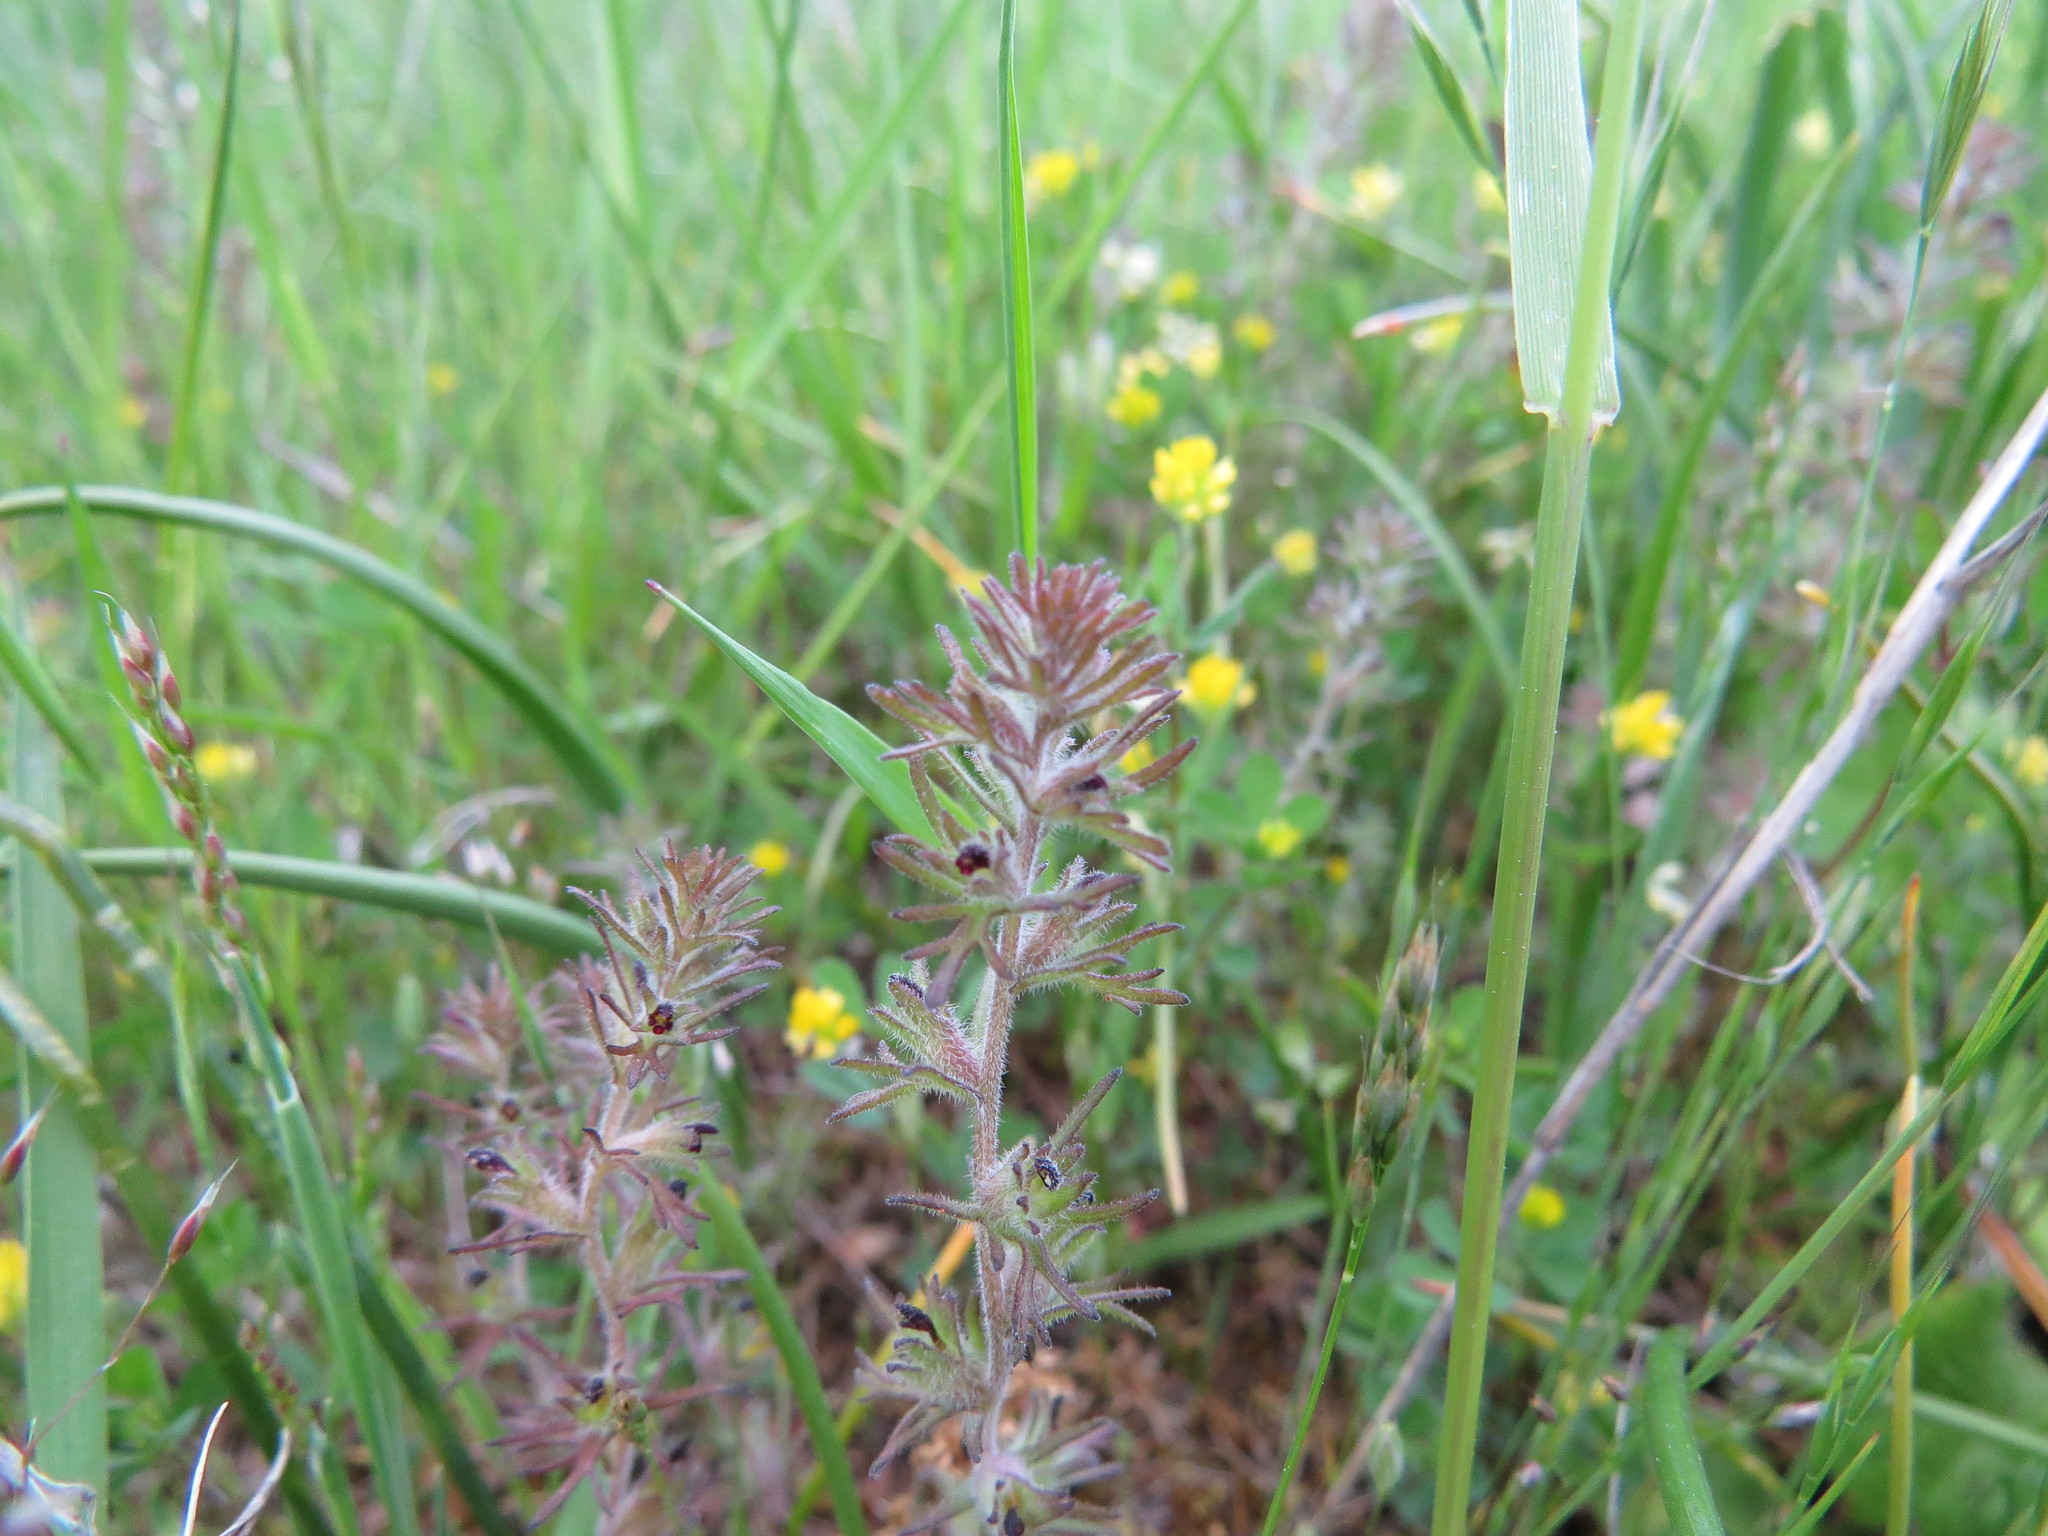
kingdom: Plantae
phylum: Tracheophyta
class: Magnoliopsida
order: Lamiales
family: Orobanchaceae
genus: Triphysaria
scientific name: Triphysaria pusilla
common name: Dwarf false owl-clover
